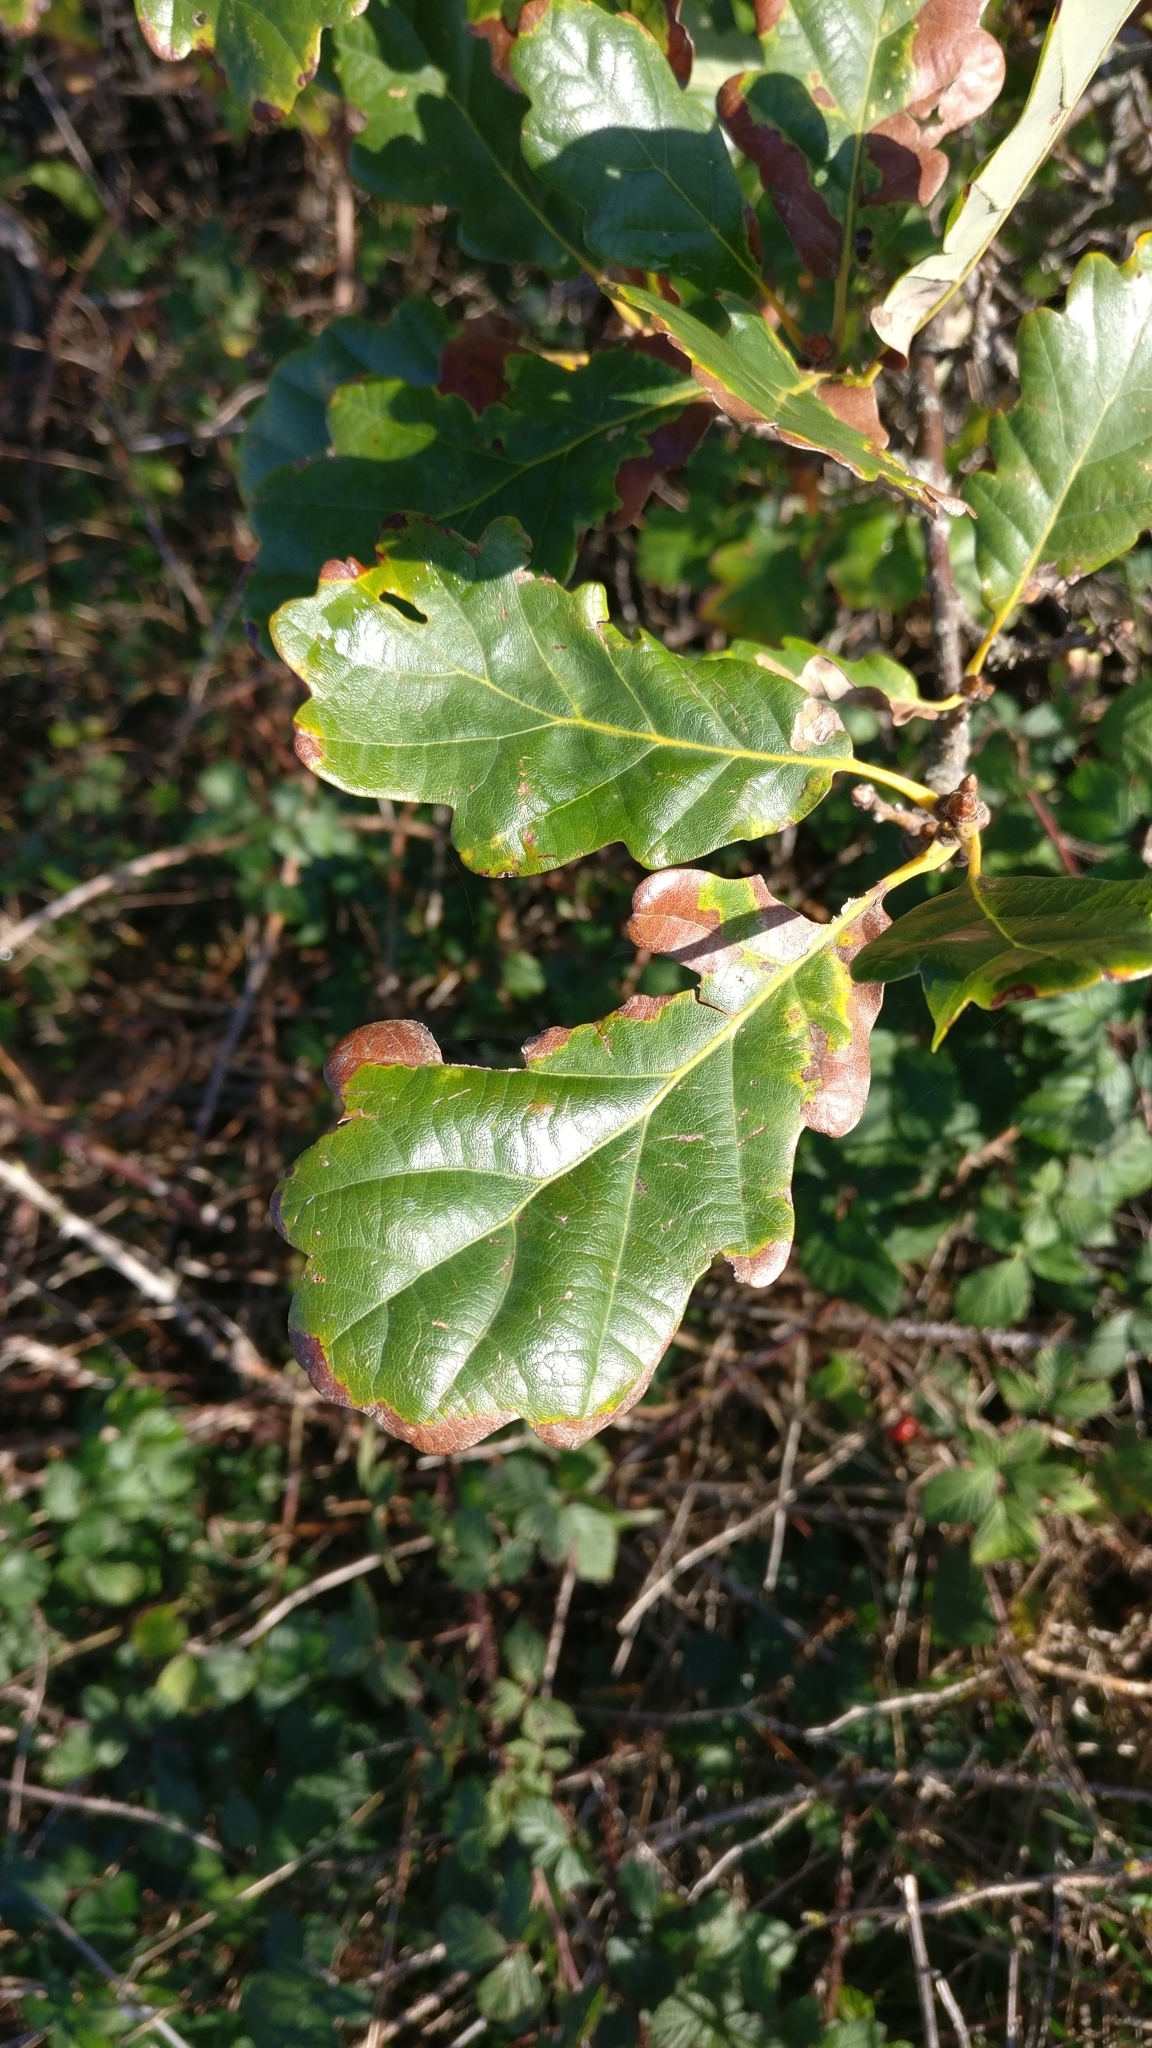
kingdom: Plantae
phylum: Tracheophyta
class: Magnoliopsida
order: Fagales
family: Fagaceae
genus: Quercus
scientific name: Quercus petraea
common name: Sessile oak
